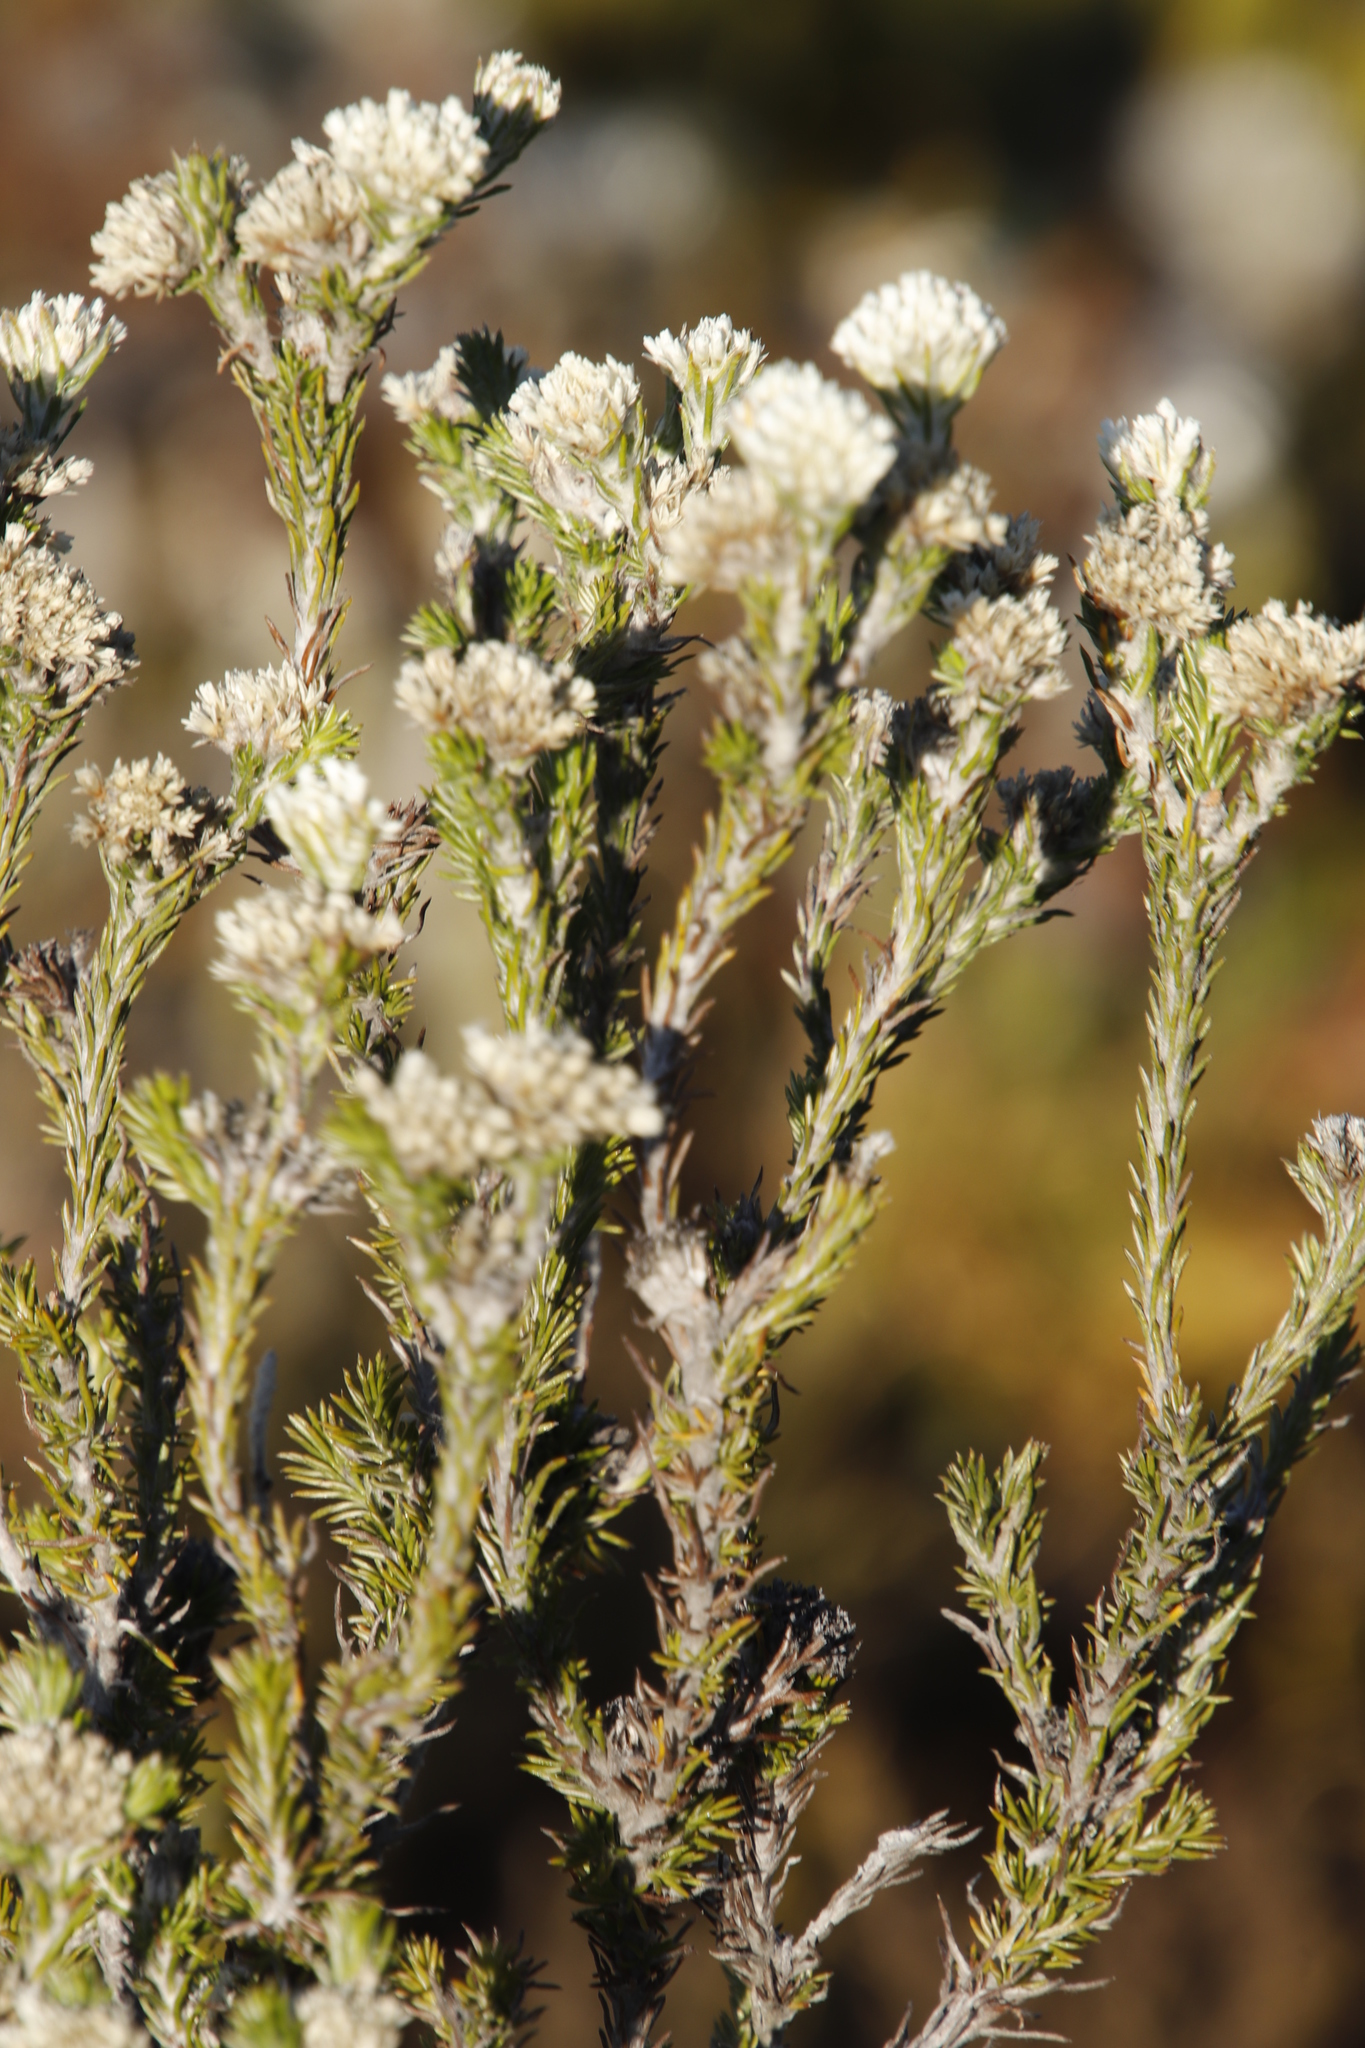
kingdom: Plantae
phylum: Tracheophyta
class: Magnoliopsida
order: Asterales
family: Asteraceae
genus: Metalasia
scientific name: Metalasia compacta
